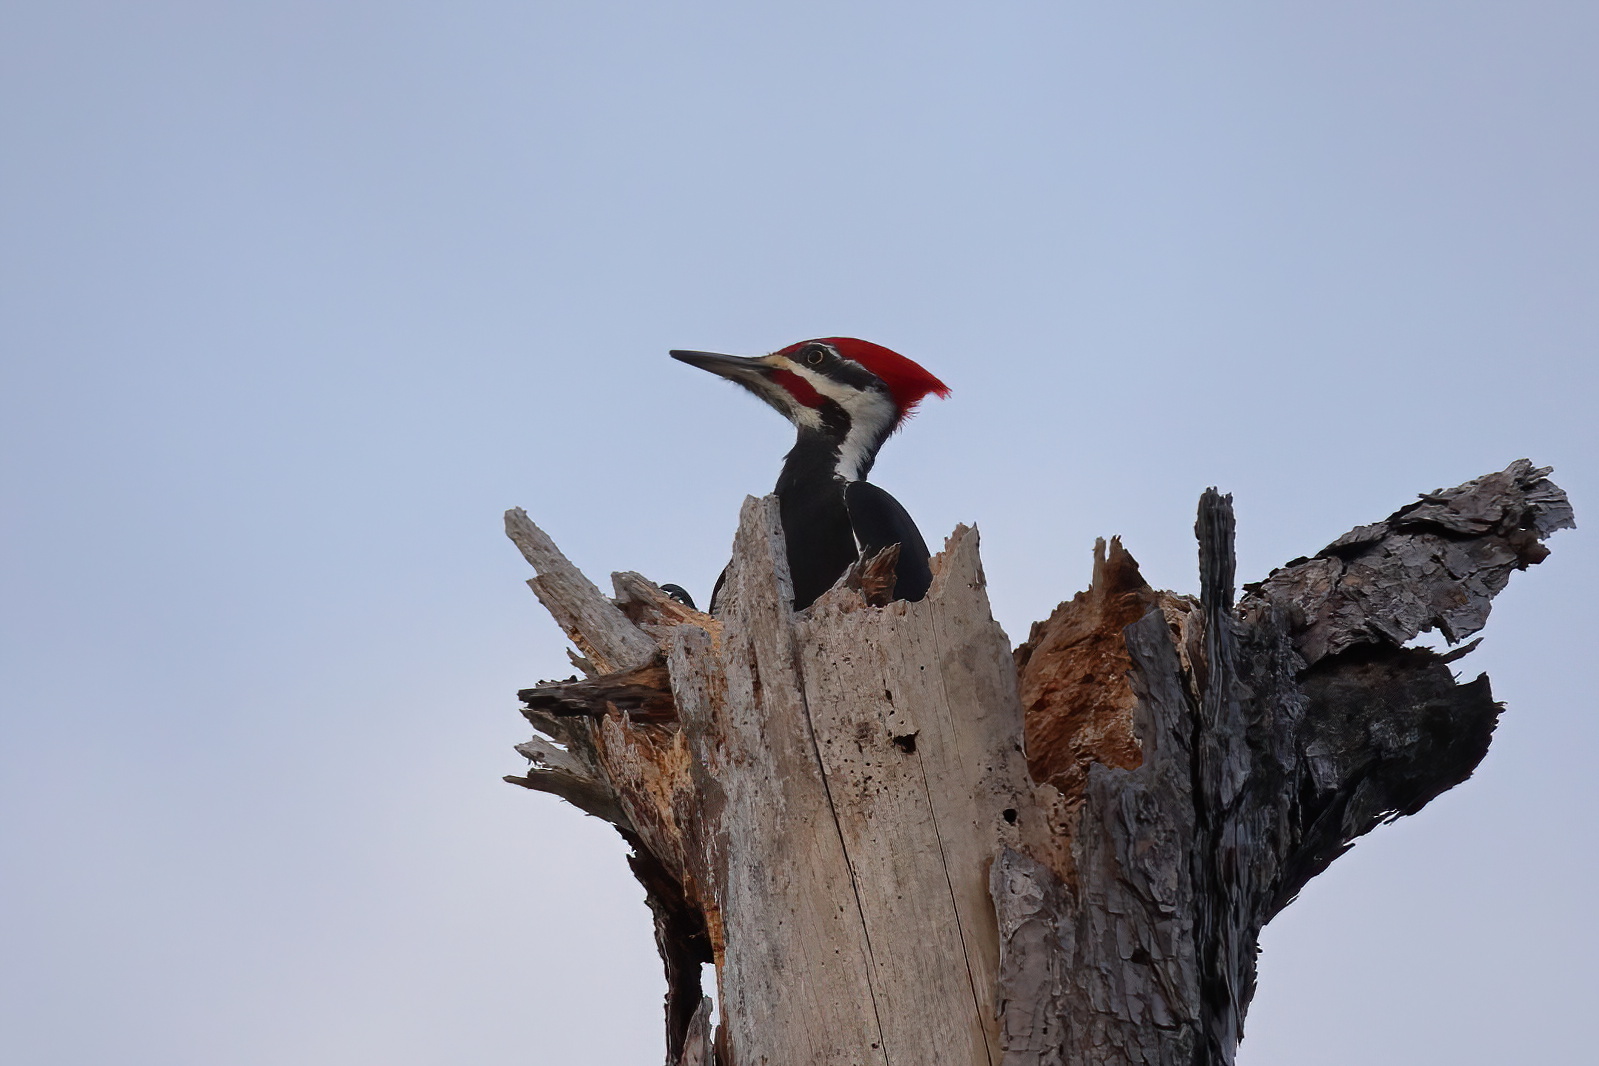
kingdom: Animalia
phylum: Chordata
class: Aves
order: Piciformes
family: Picidae
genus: Dryocopus
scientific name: Dryocopus pileatus
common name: Pileated woodpecker
